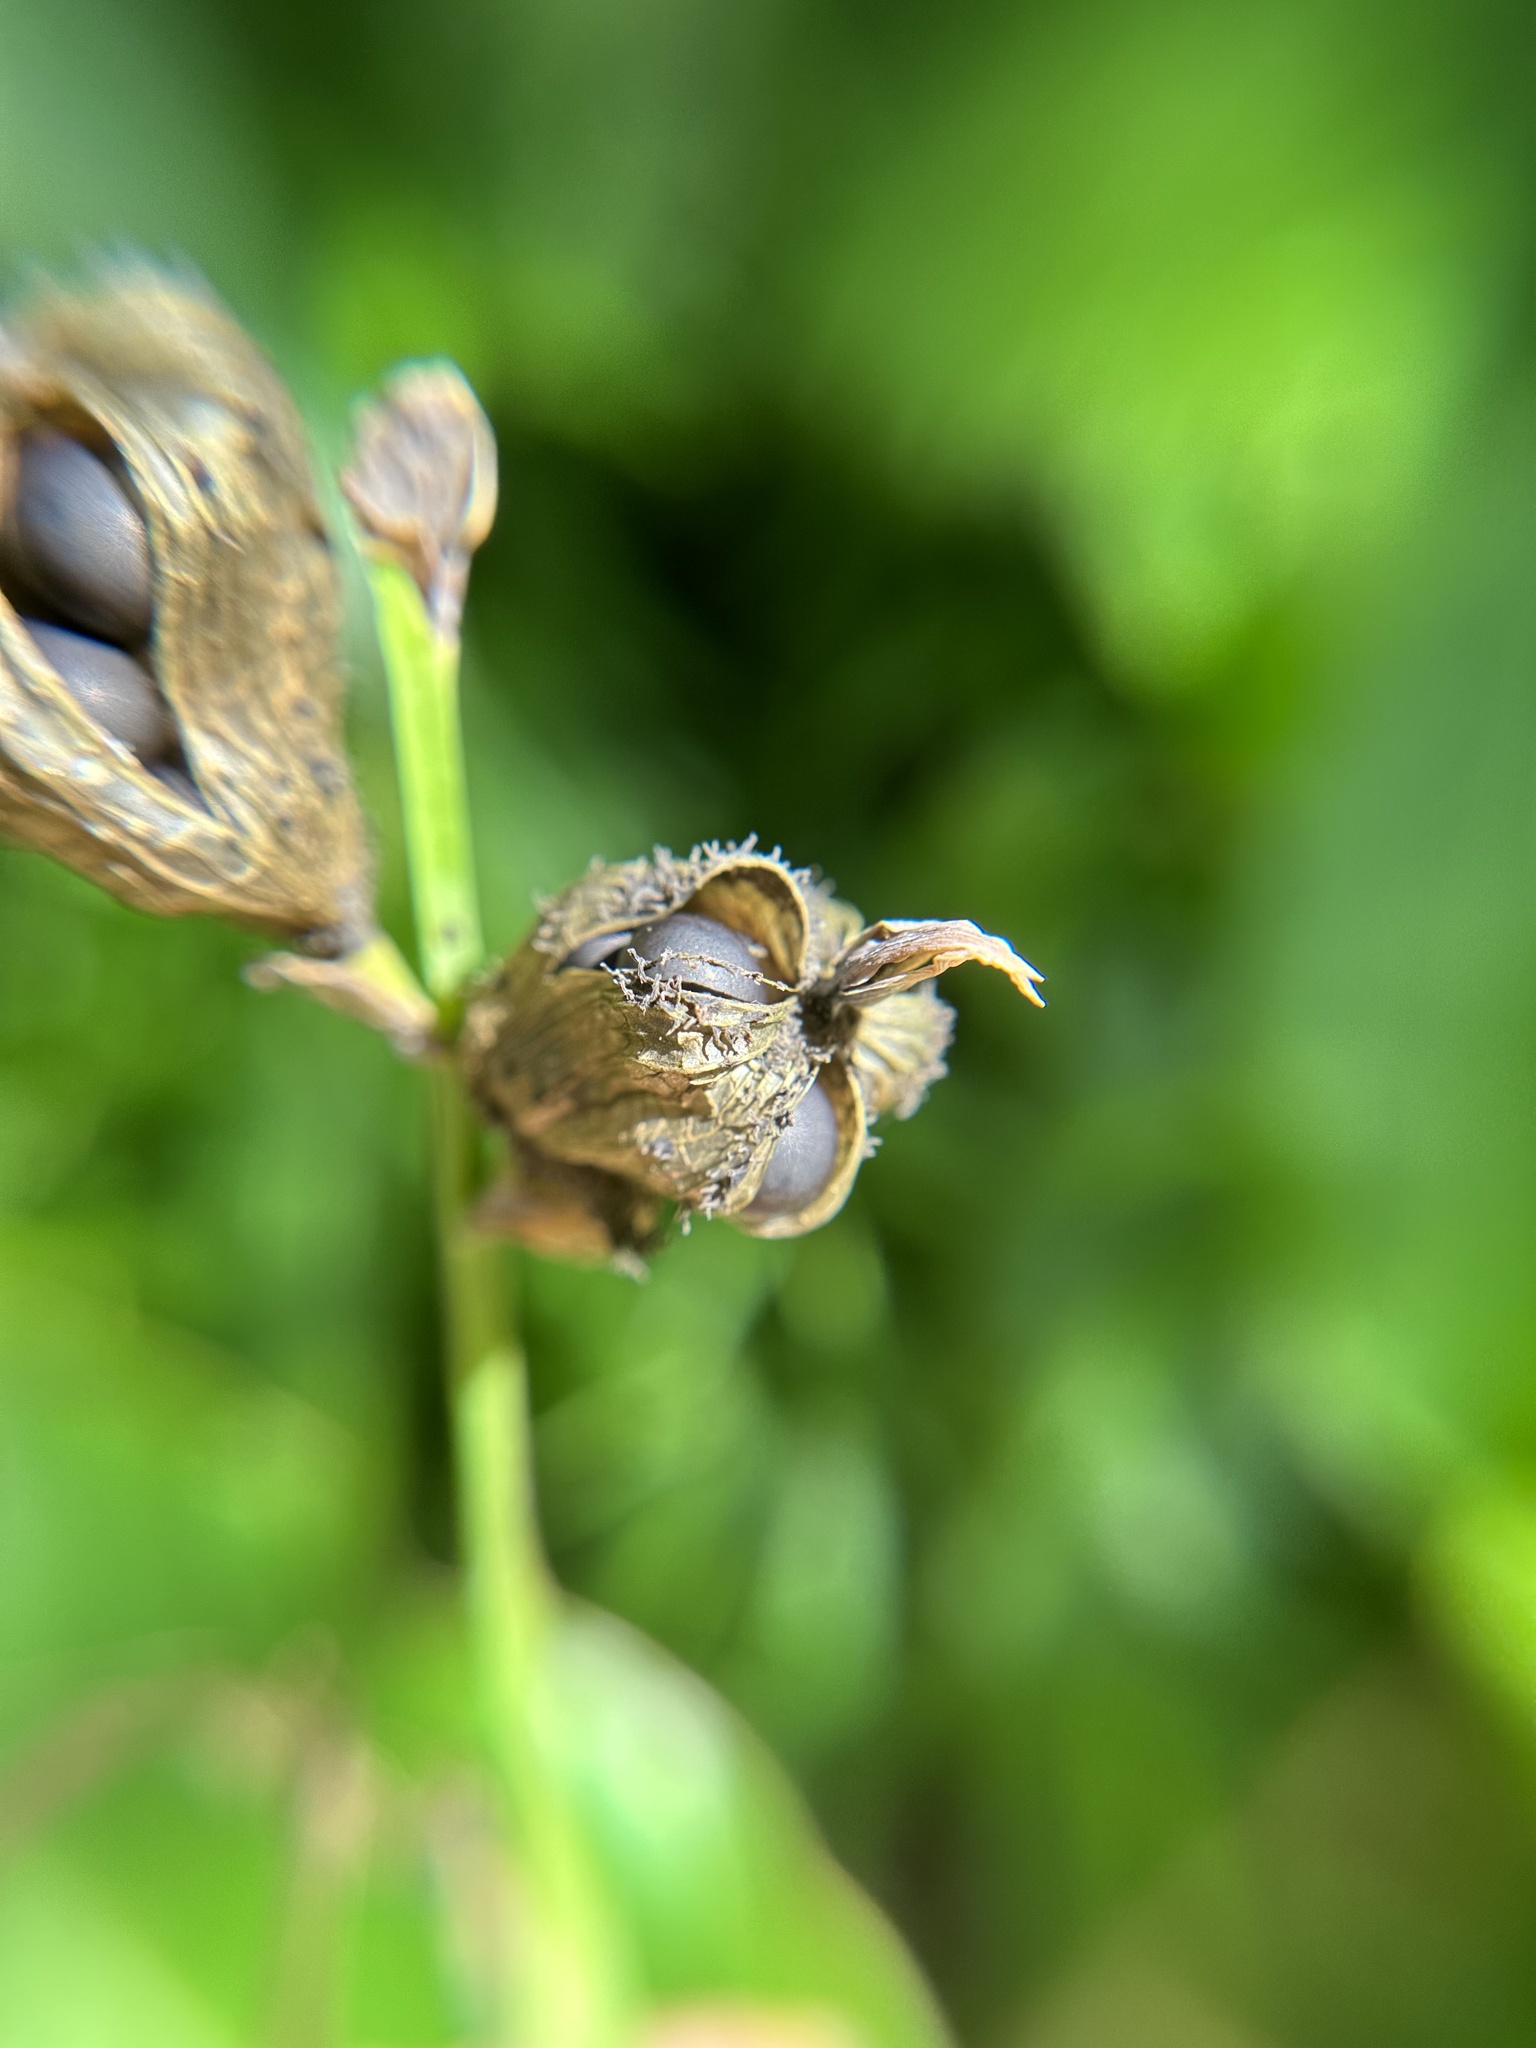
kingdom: Plantae
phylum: Tracheophyta
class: Liliopsida
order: Zingiberales
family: Cannaceae
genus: Canna
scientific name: Canna indica
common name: Indian shot
